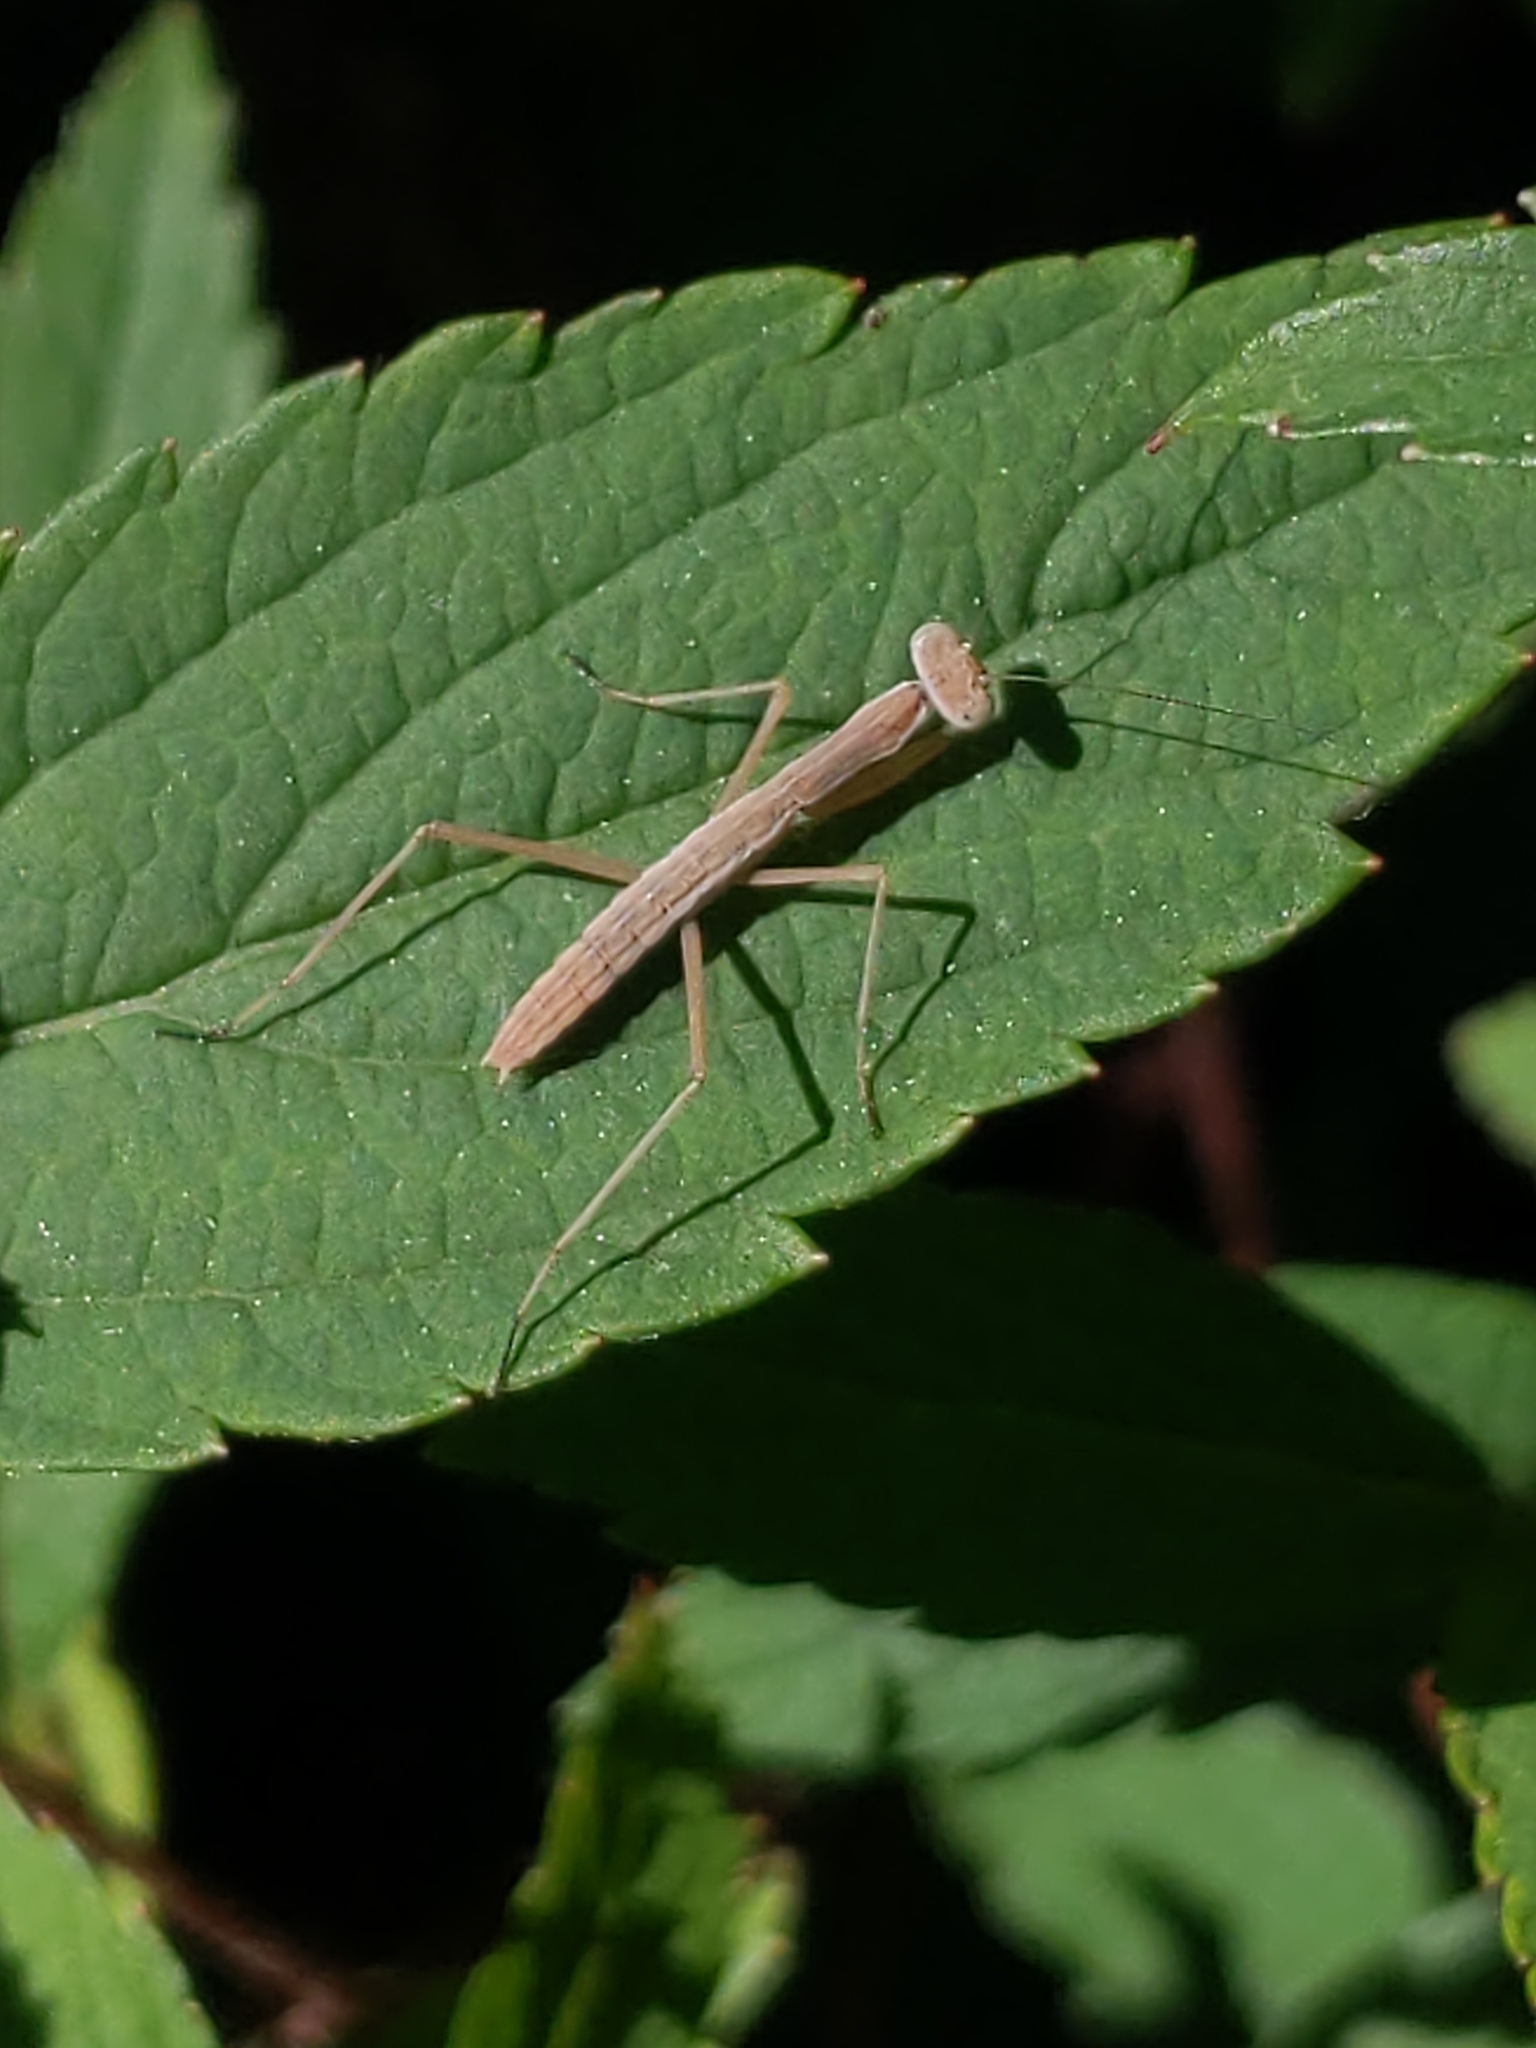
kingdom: Animalia
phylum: Arthropoda
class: Insecta
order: Mantodea
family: Mantidae
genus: Tenodera
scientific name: Tenodera sinensis
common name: Chinese mantis
